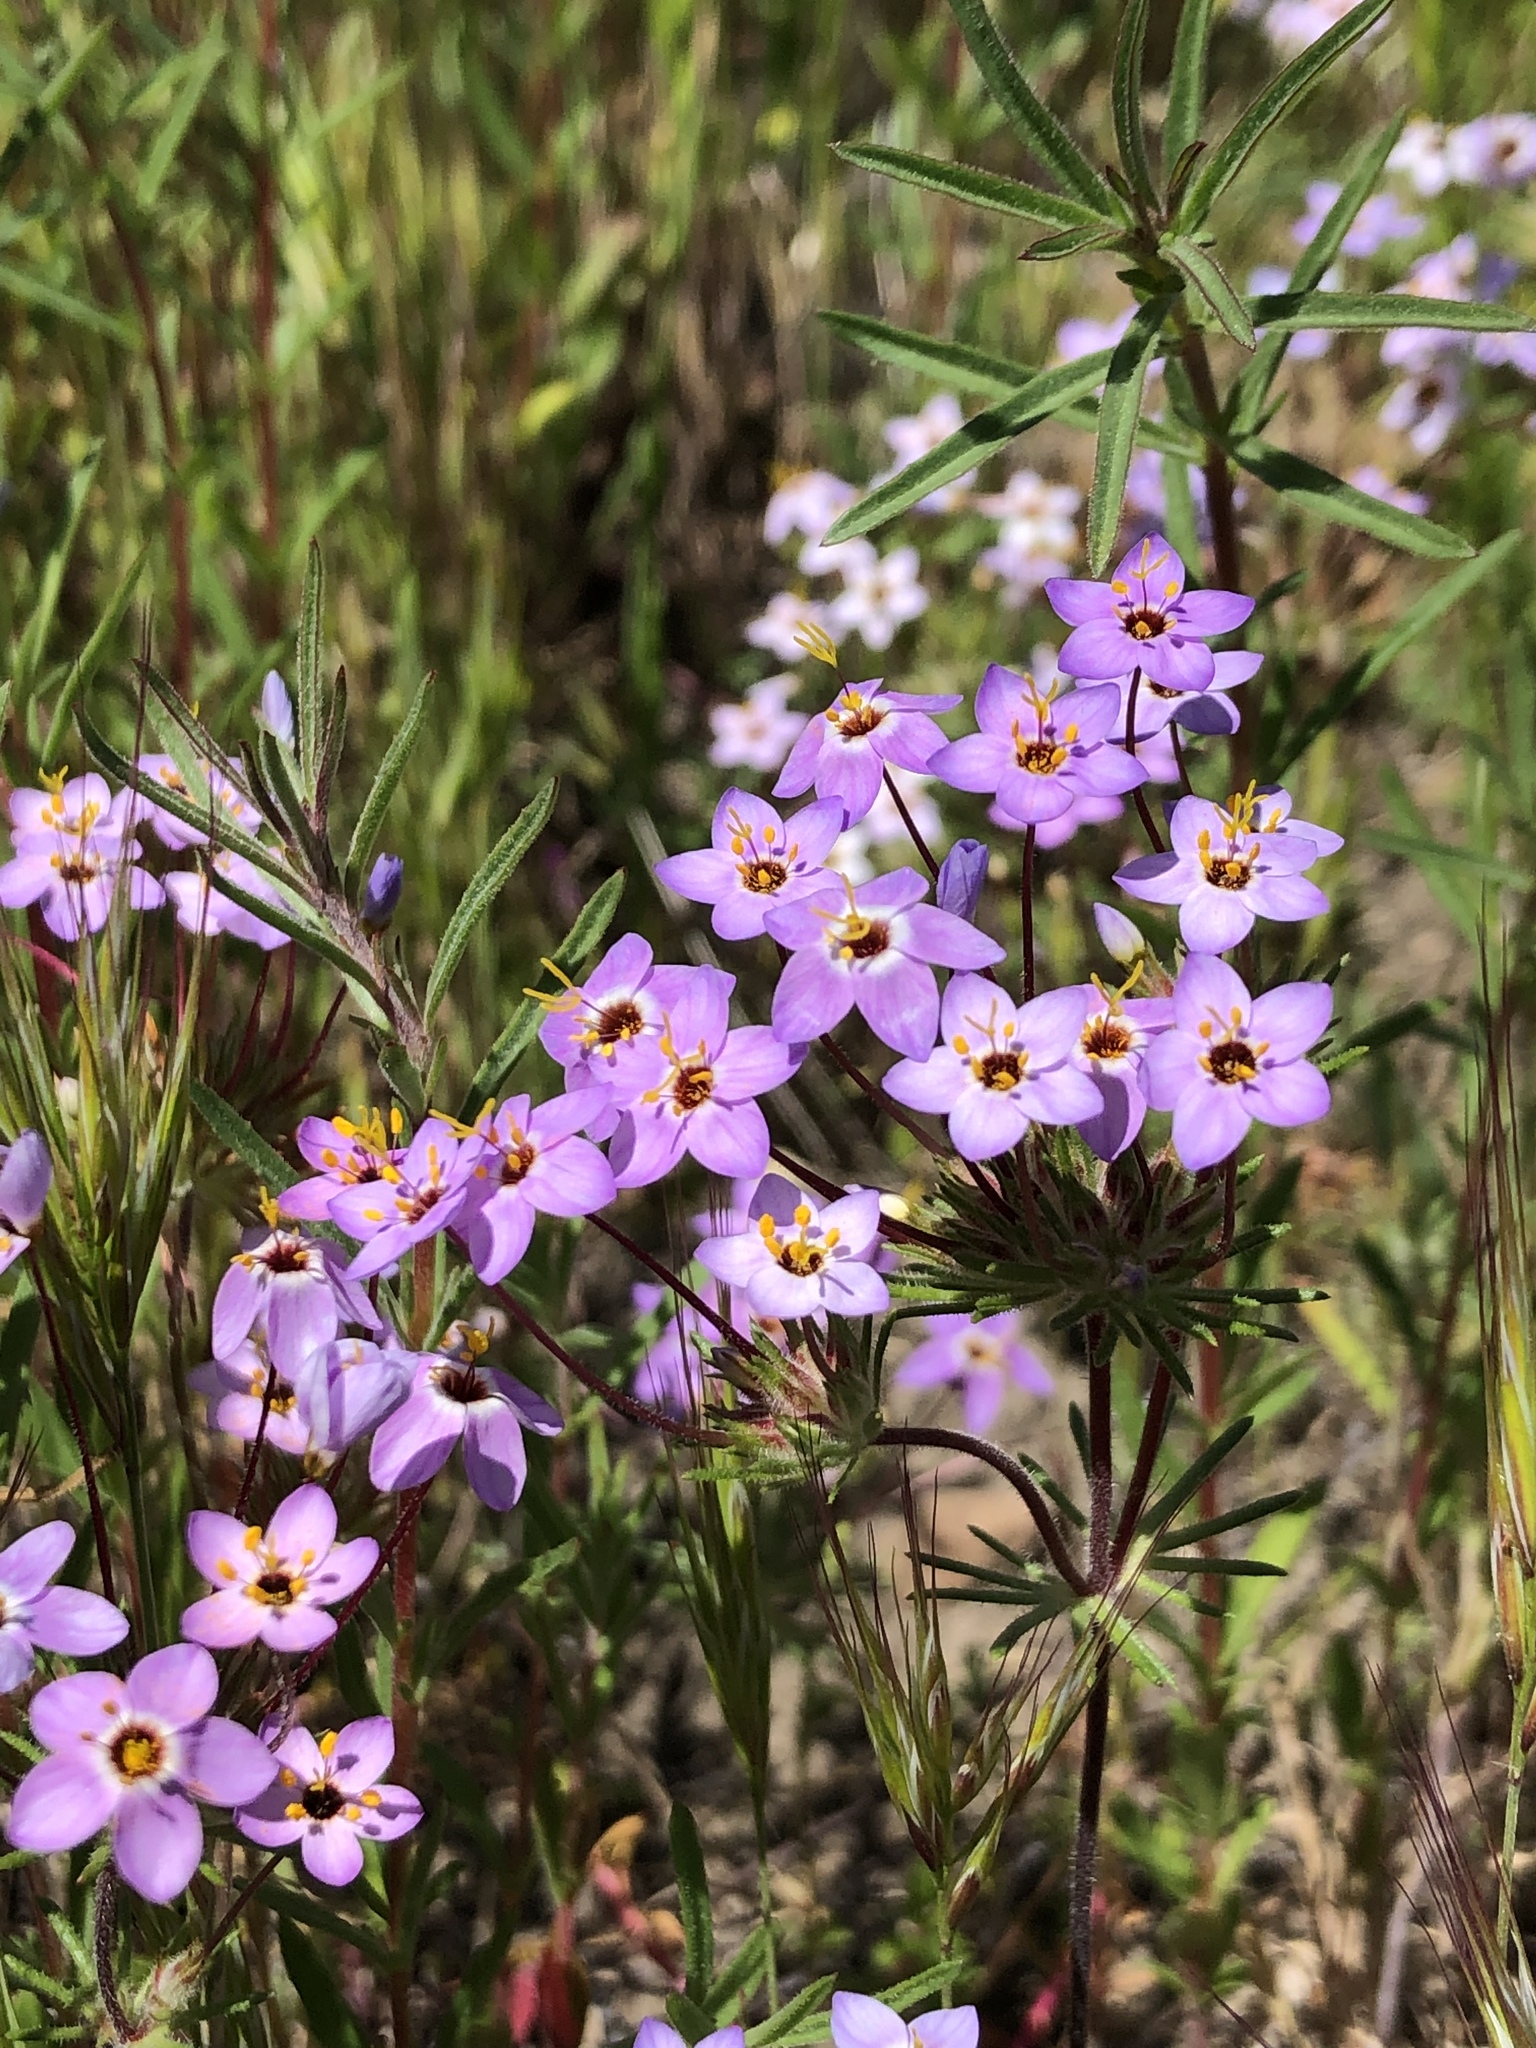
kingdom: Plantae
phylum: Tracheophyta
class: Magnoliopsida
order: Ericales
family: Polemoniaceae
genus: Leptosiphon
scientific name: Leptosiphon parviflorus
